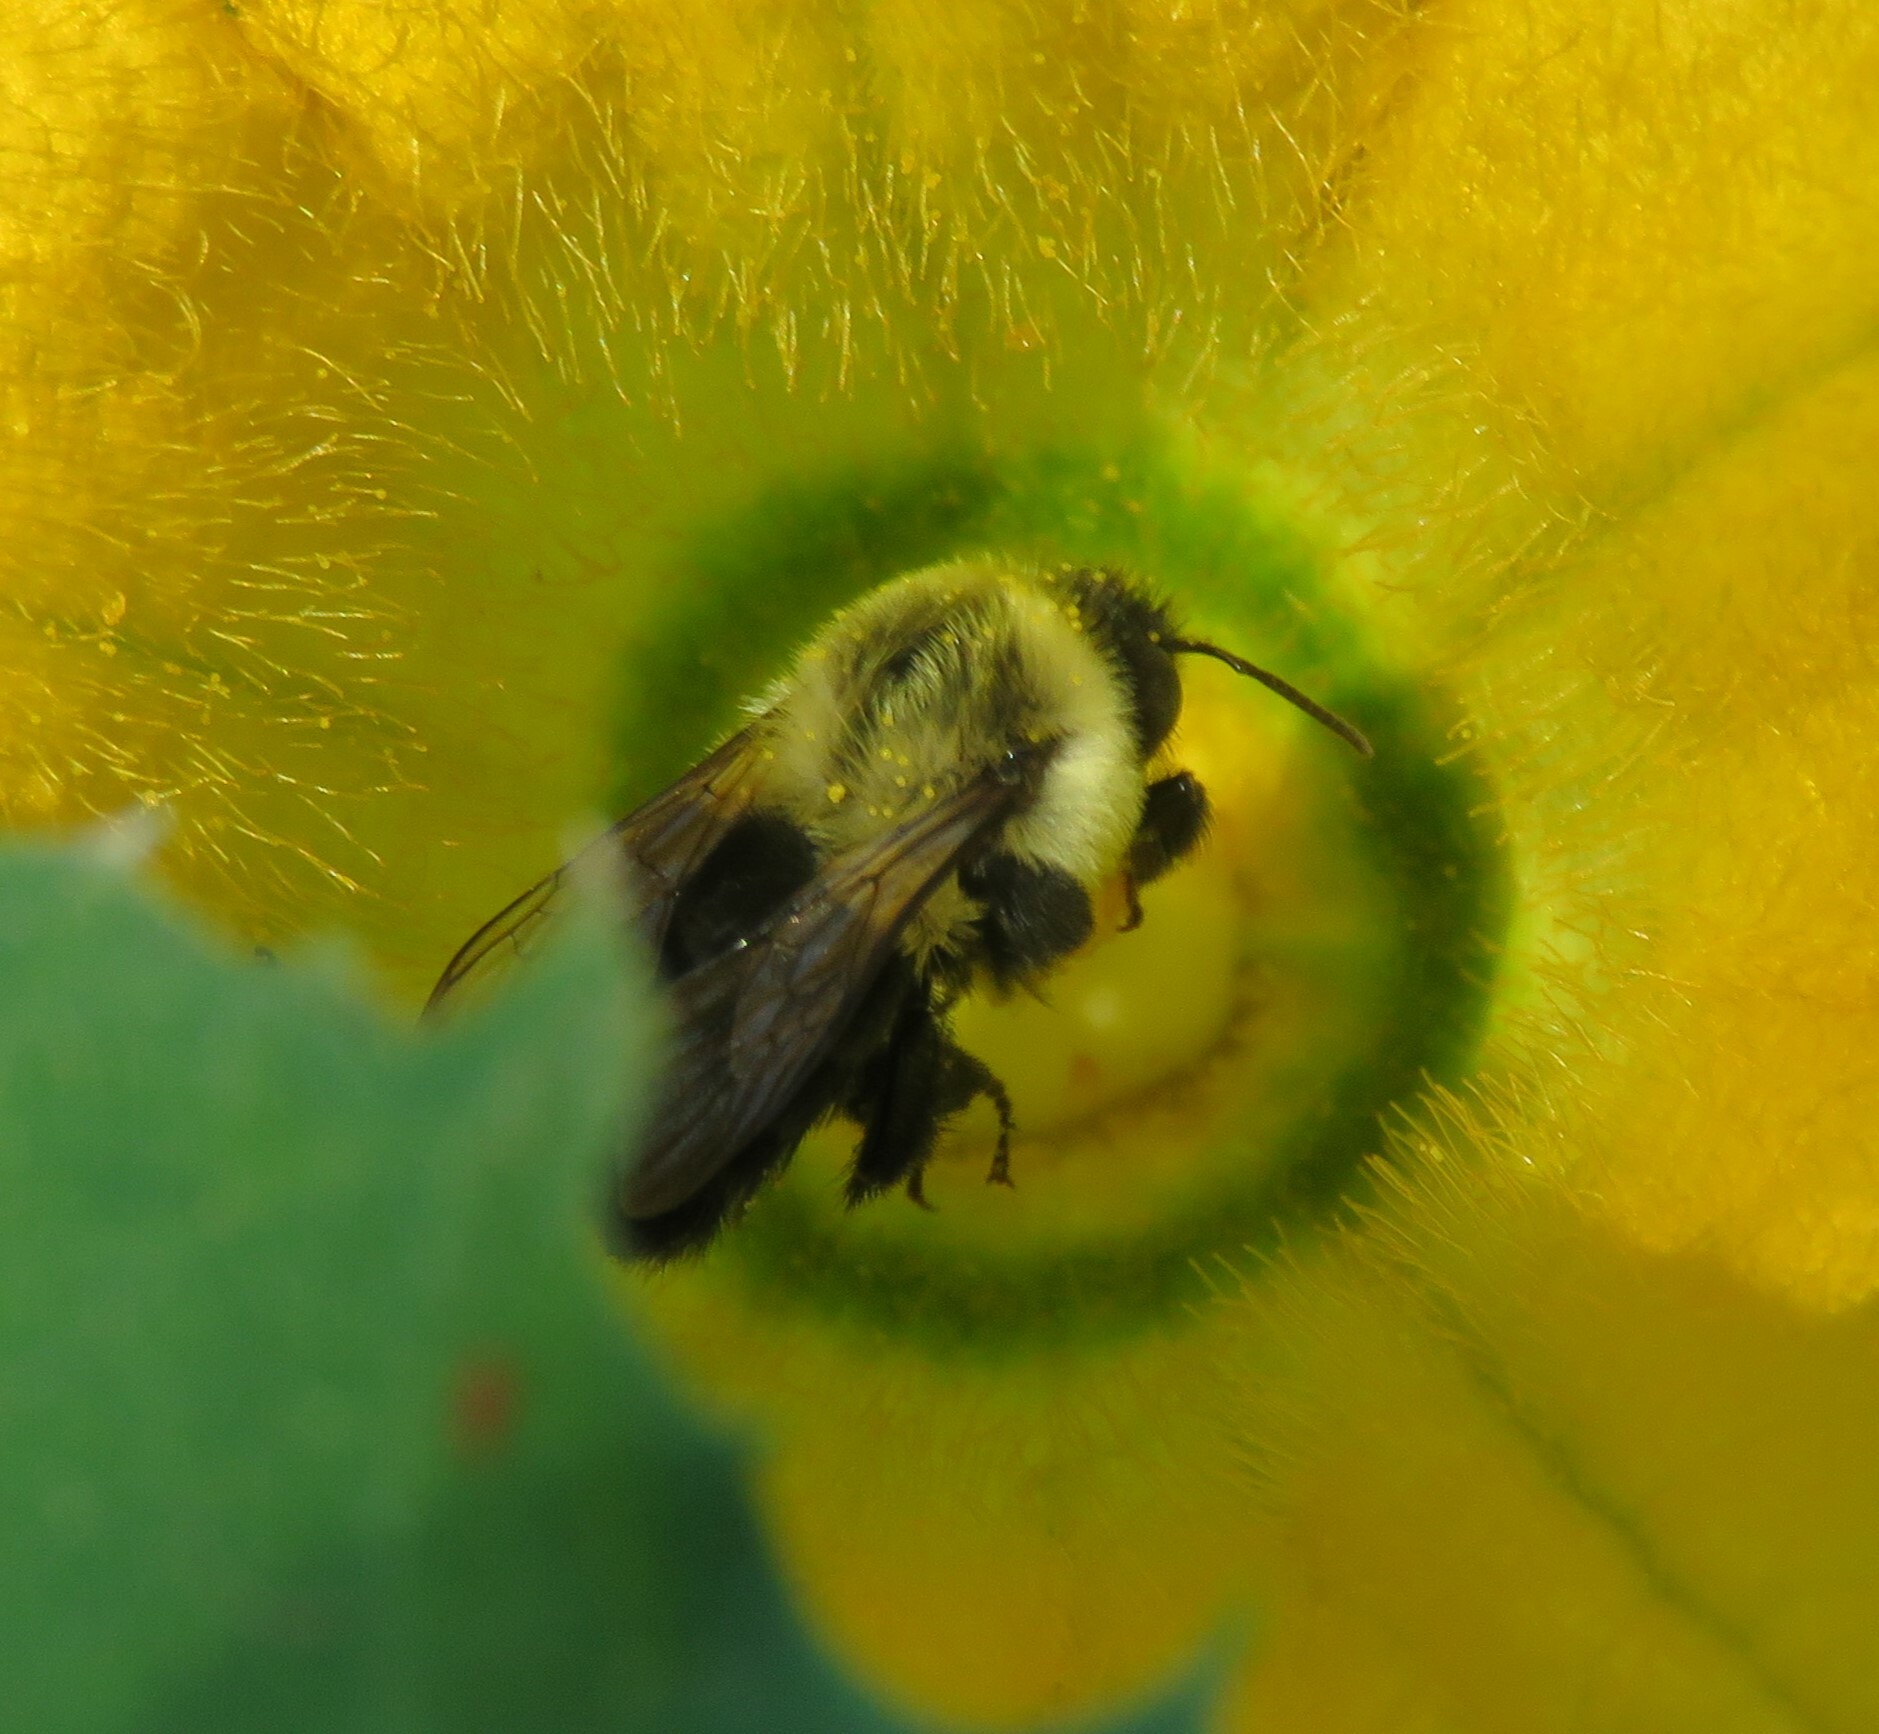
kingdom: Animalia
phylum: Arthropoda
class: Insecta
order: Hymenoptera
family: Apidae
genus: Bombus
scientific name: Bombus impatiens
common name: Common eastern bumble bee
